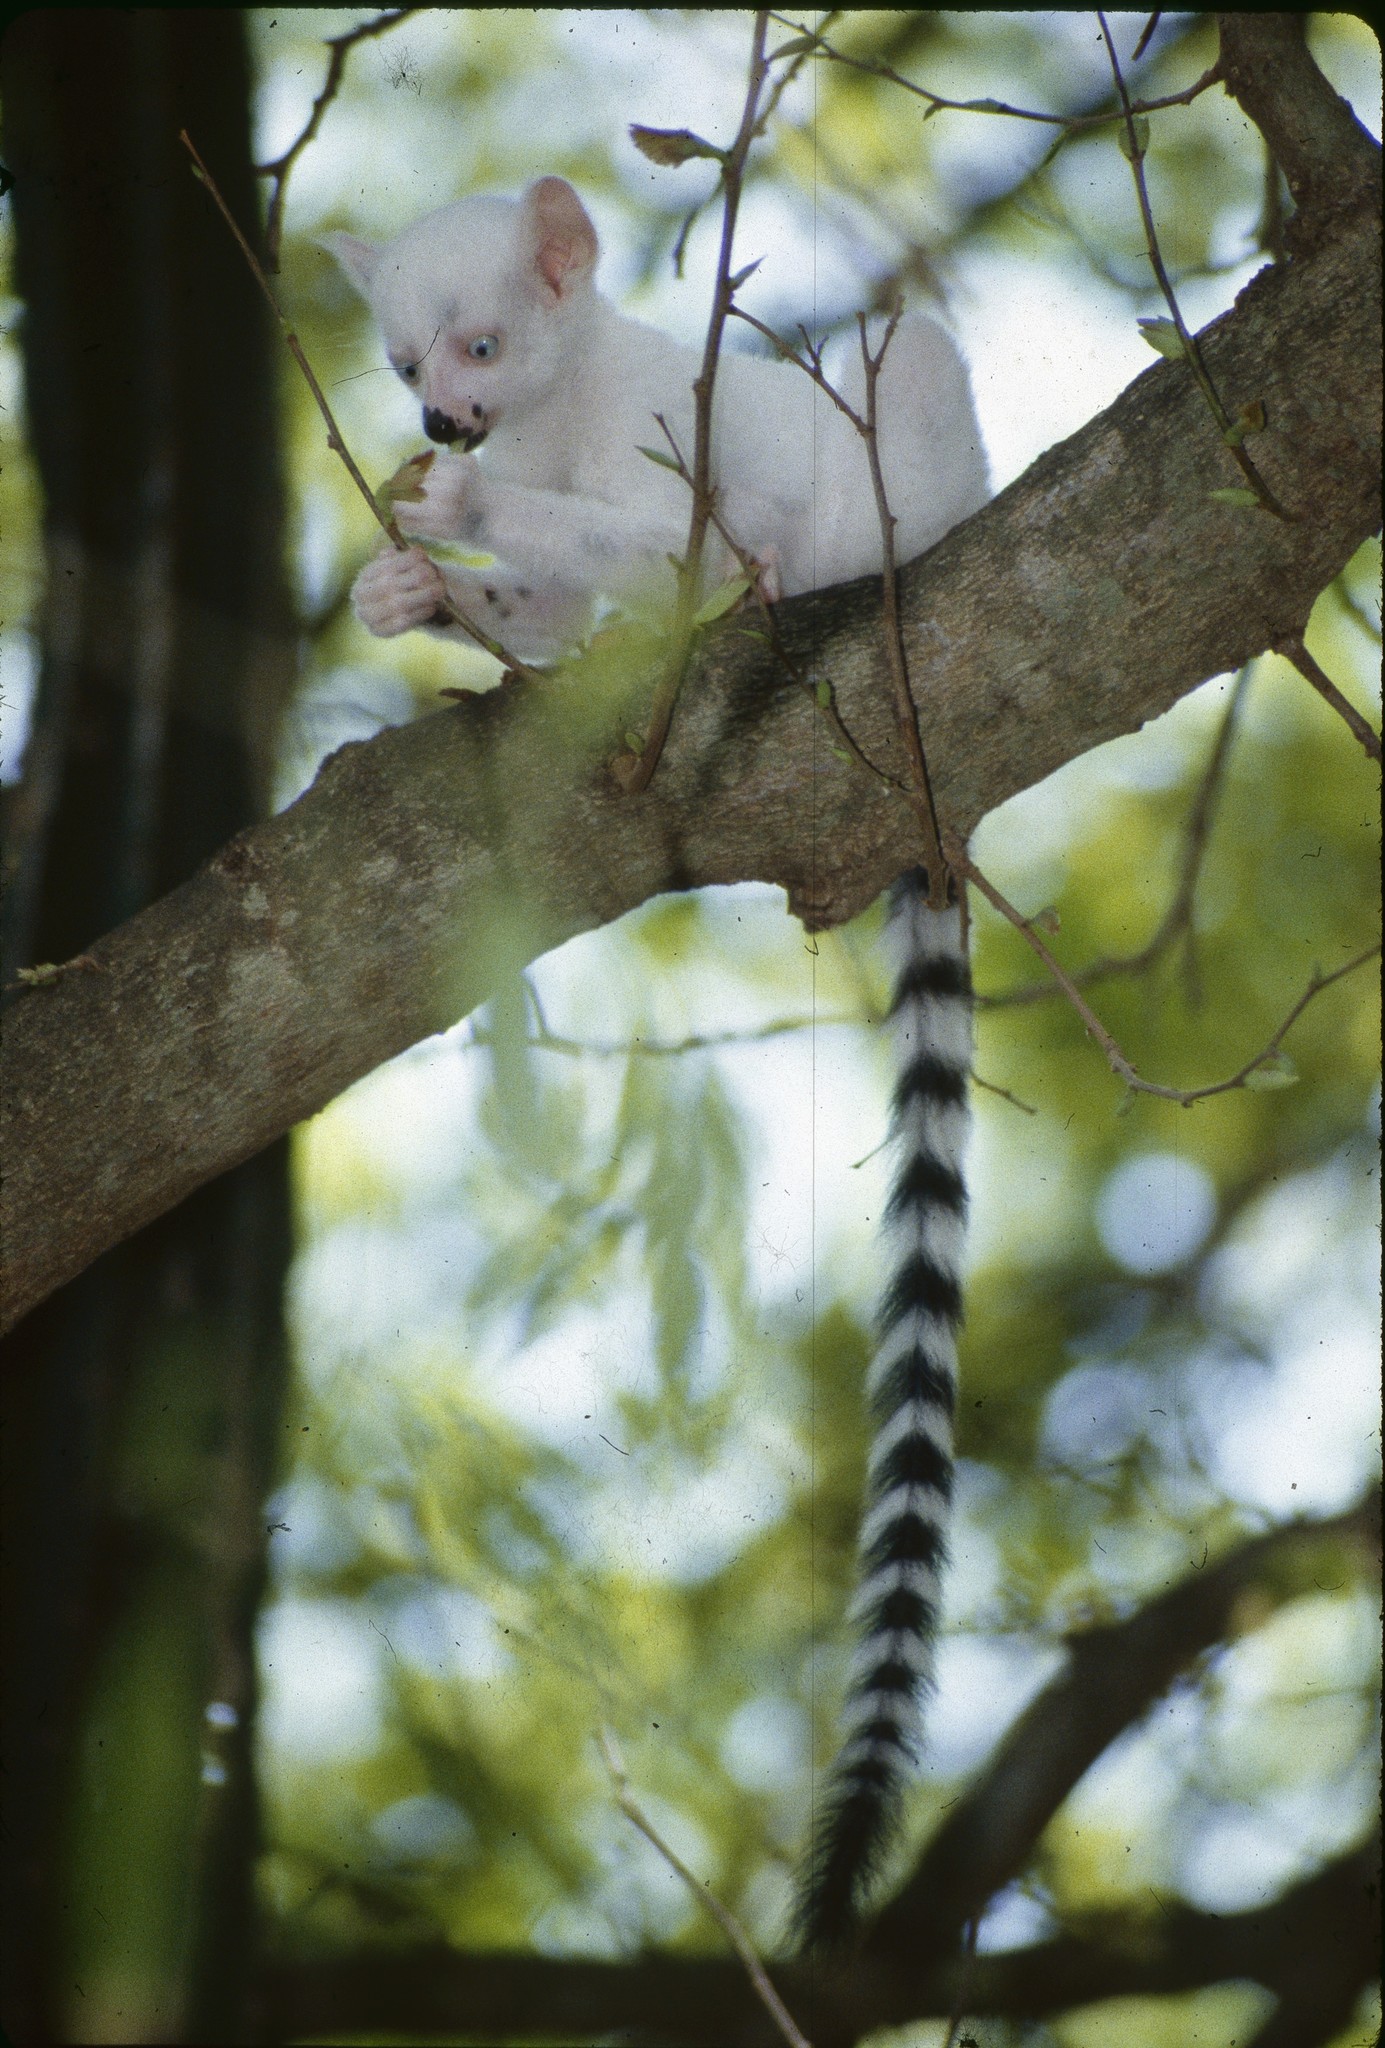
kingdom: Animalia
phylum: Chordata
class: Mammalia
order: Primates
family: Lemuridae
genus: Lemur
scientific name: Lemur catta
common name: Ring-tailed lemur
